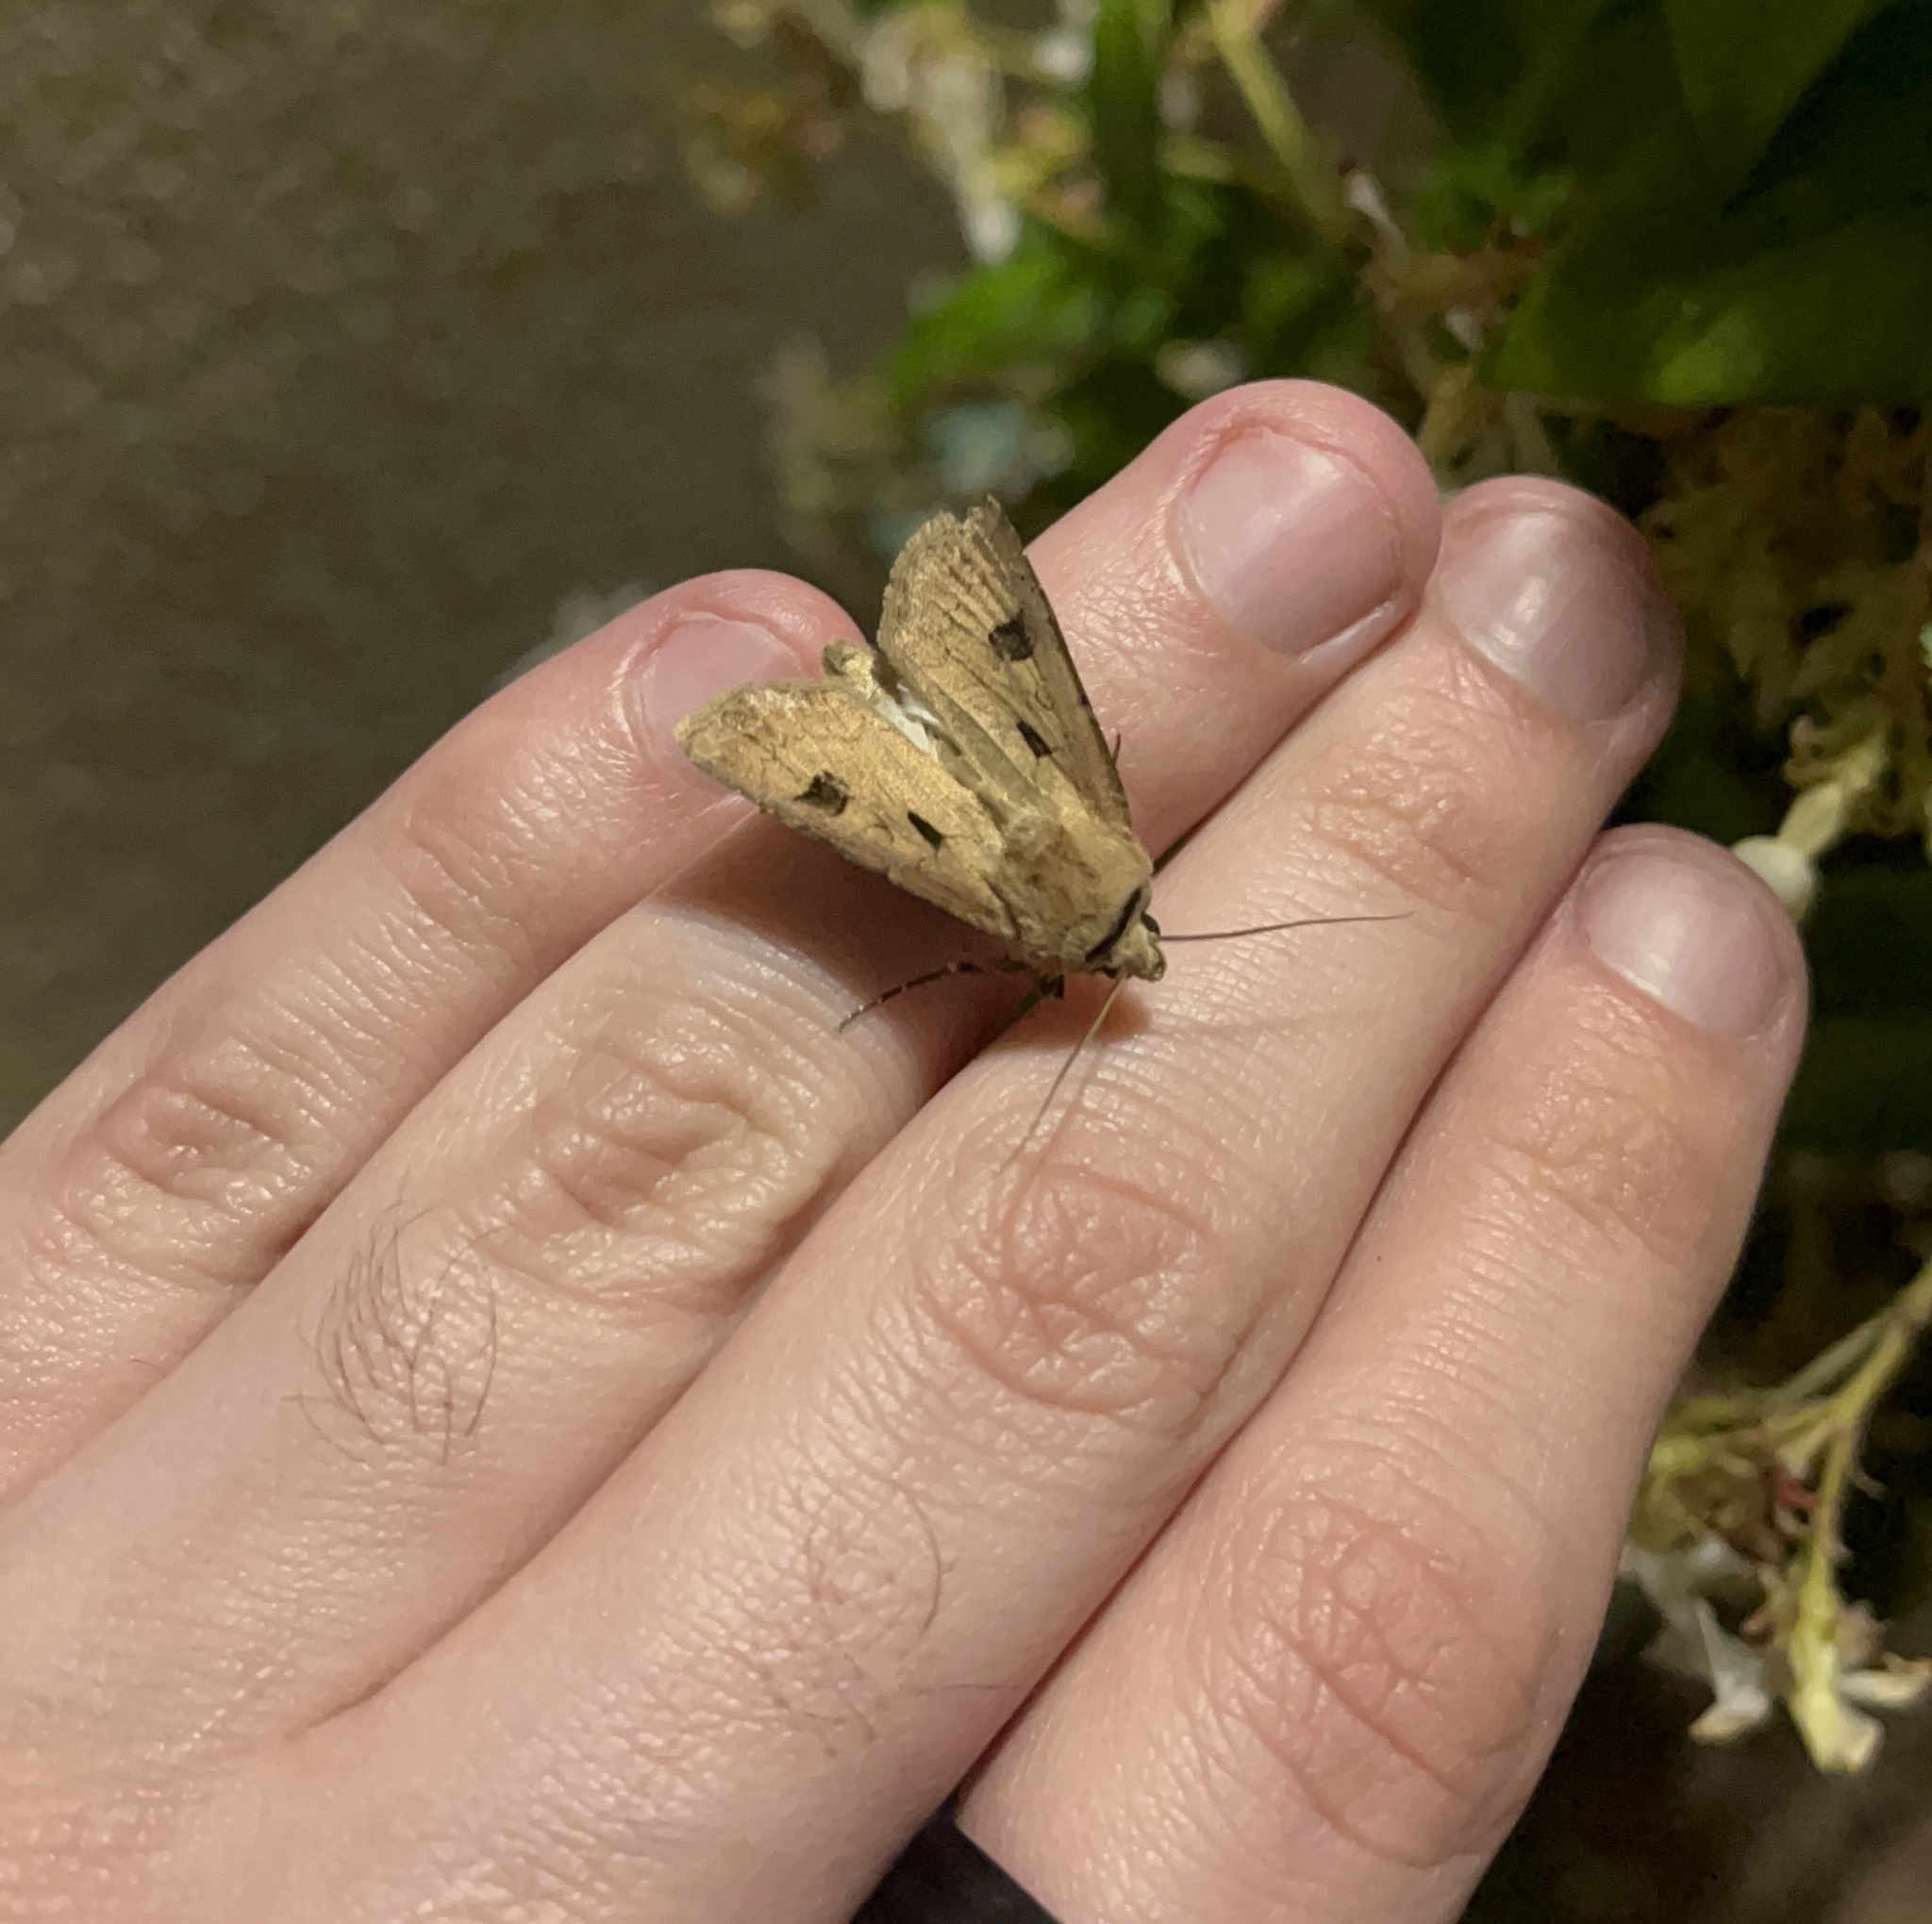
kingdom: Animalia
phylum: Arthropoda
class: Insecta
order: Lepidoptera
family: Noctuidae
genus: Agrotis
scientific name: Agrotis exclamationis
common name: Heart and dart
